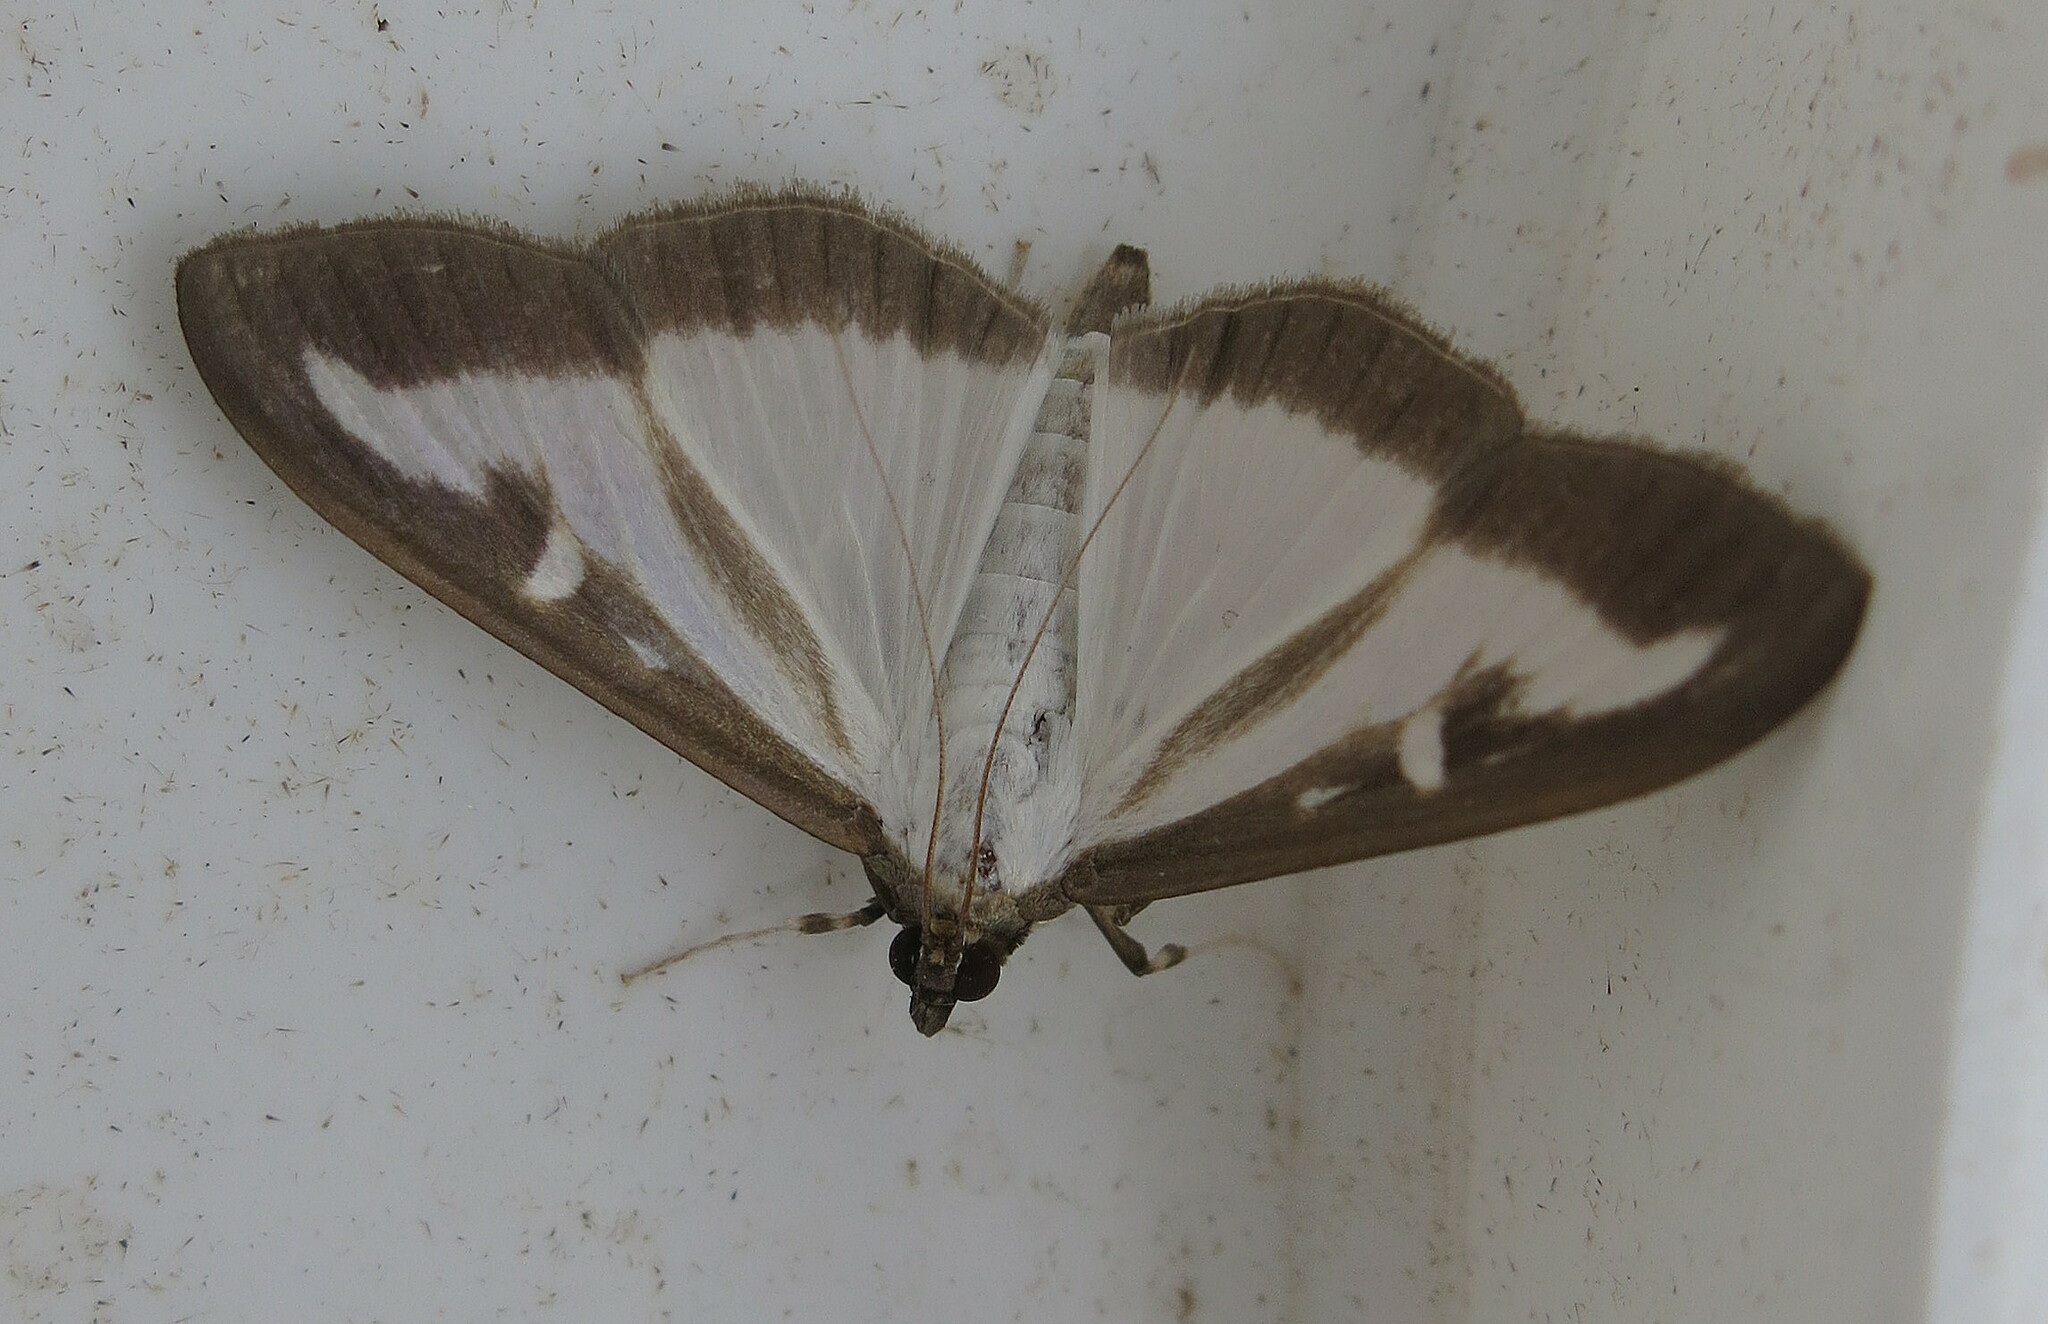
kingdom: Animalia
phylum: Arthropoda
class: Insecta
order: Lepidoptera
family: Crambidae
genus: Cydalima
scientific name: Cydalima perspectalis
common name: Box tree moth
